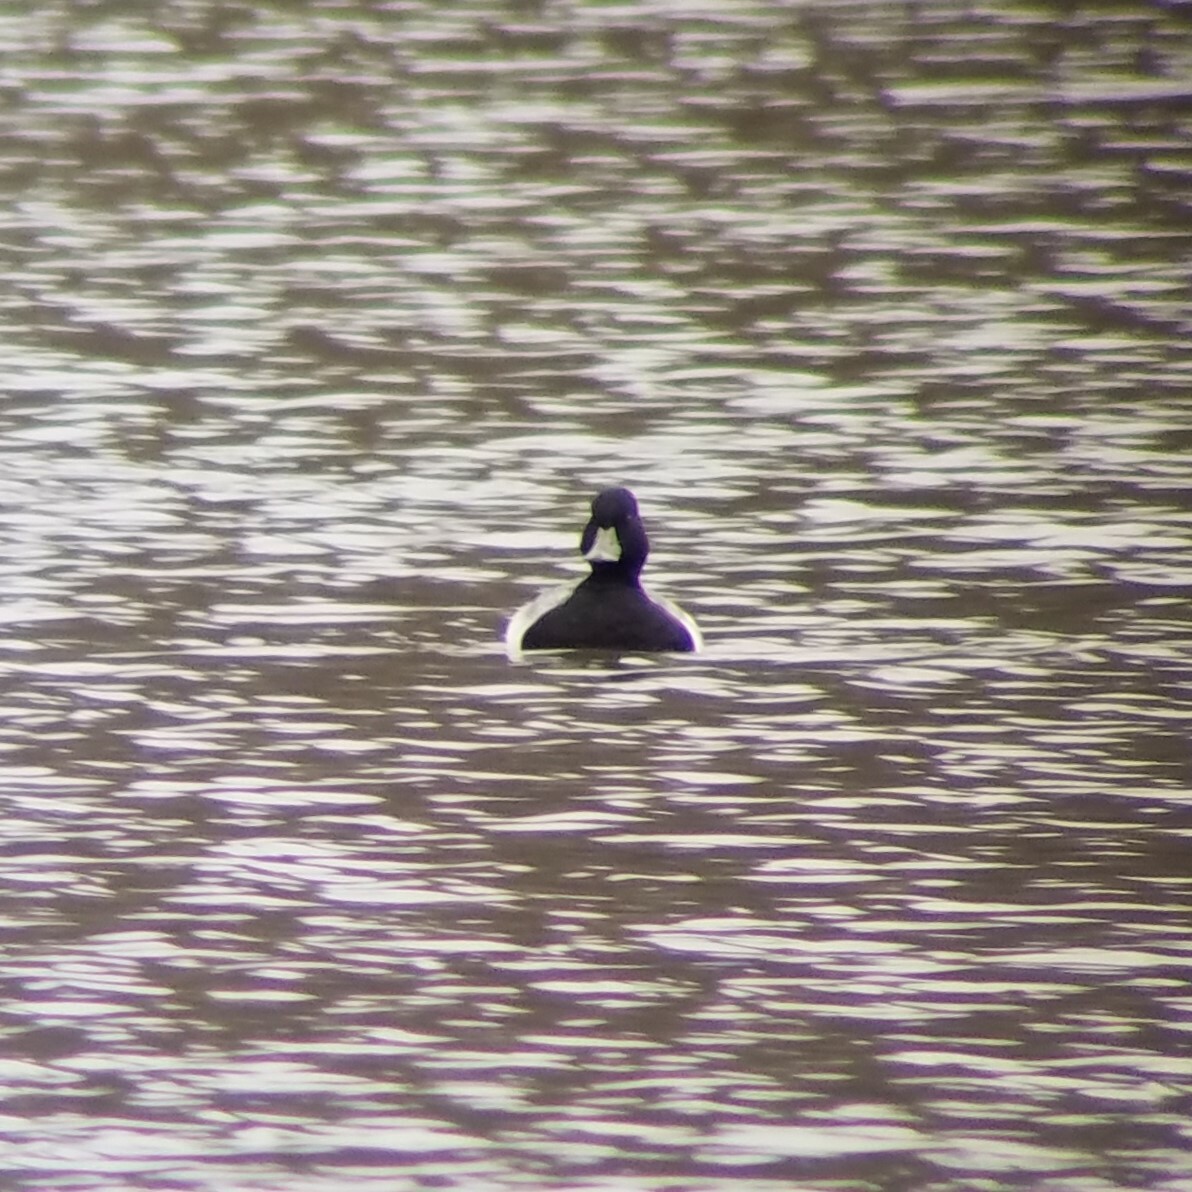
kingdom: Animalia
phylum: Chordata
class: Aves
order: Anseriformes
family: Anatidae
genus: Aythya
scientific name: Aythya affinis
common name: Lesser scaup
